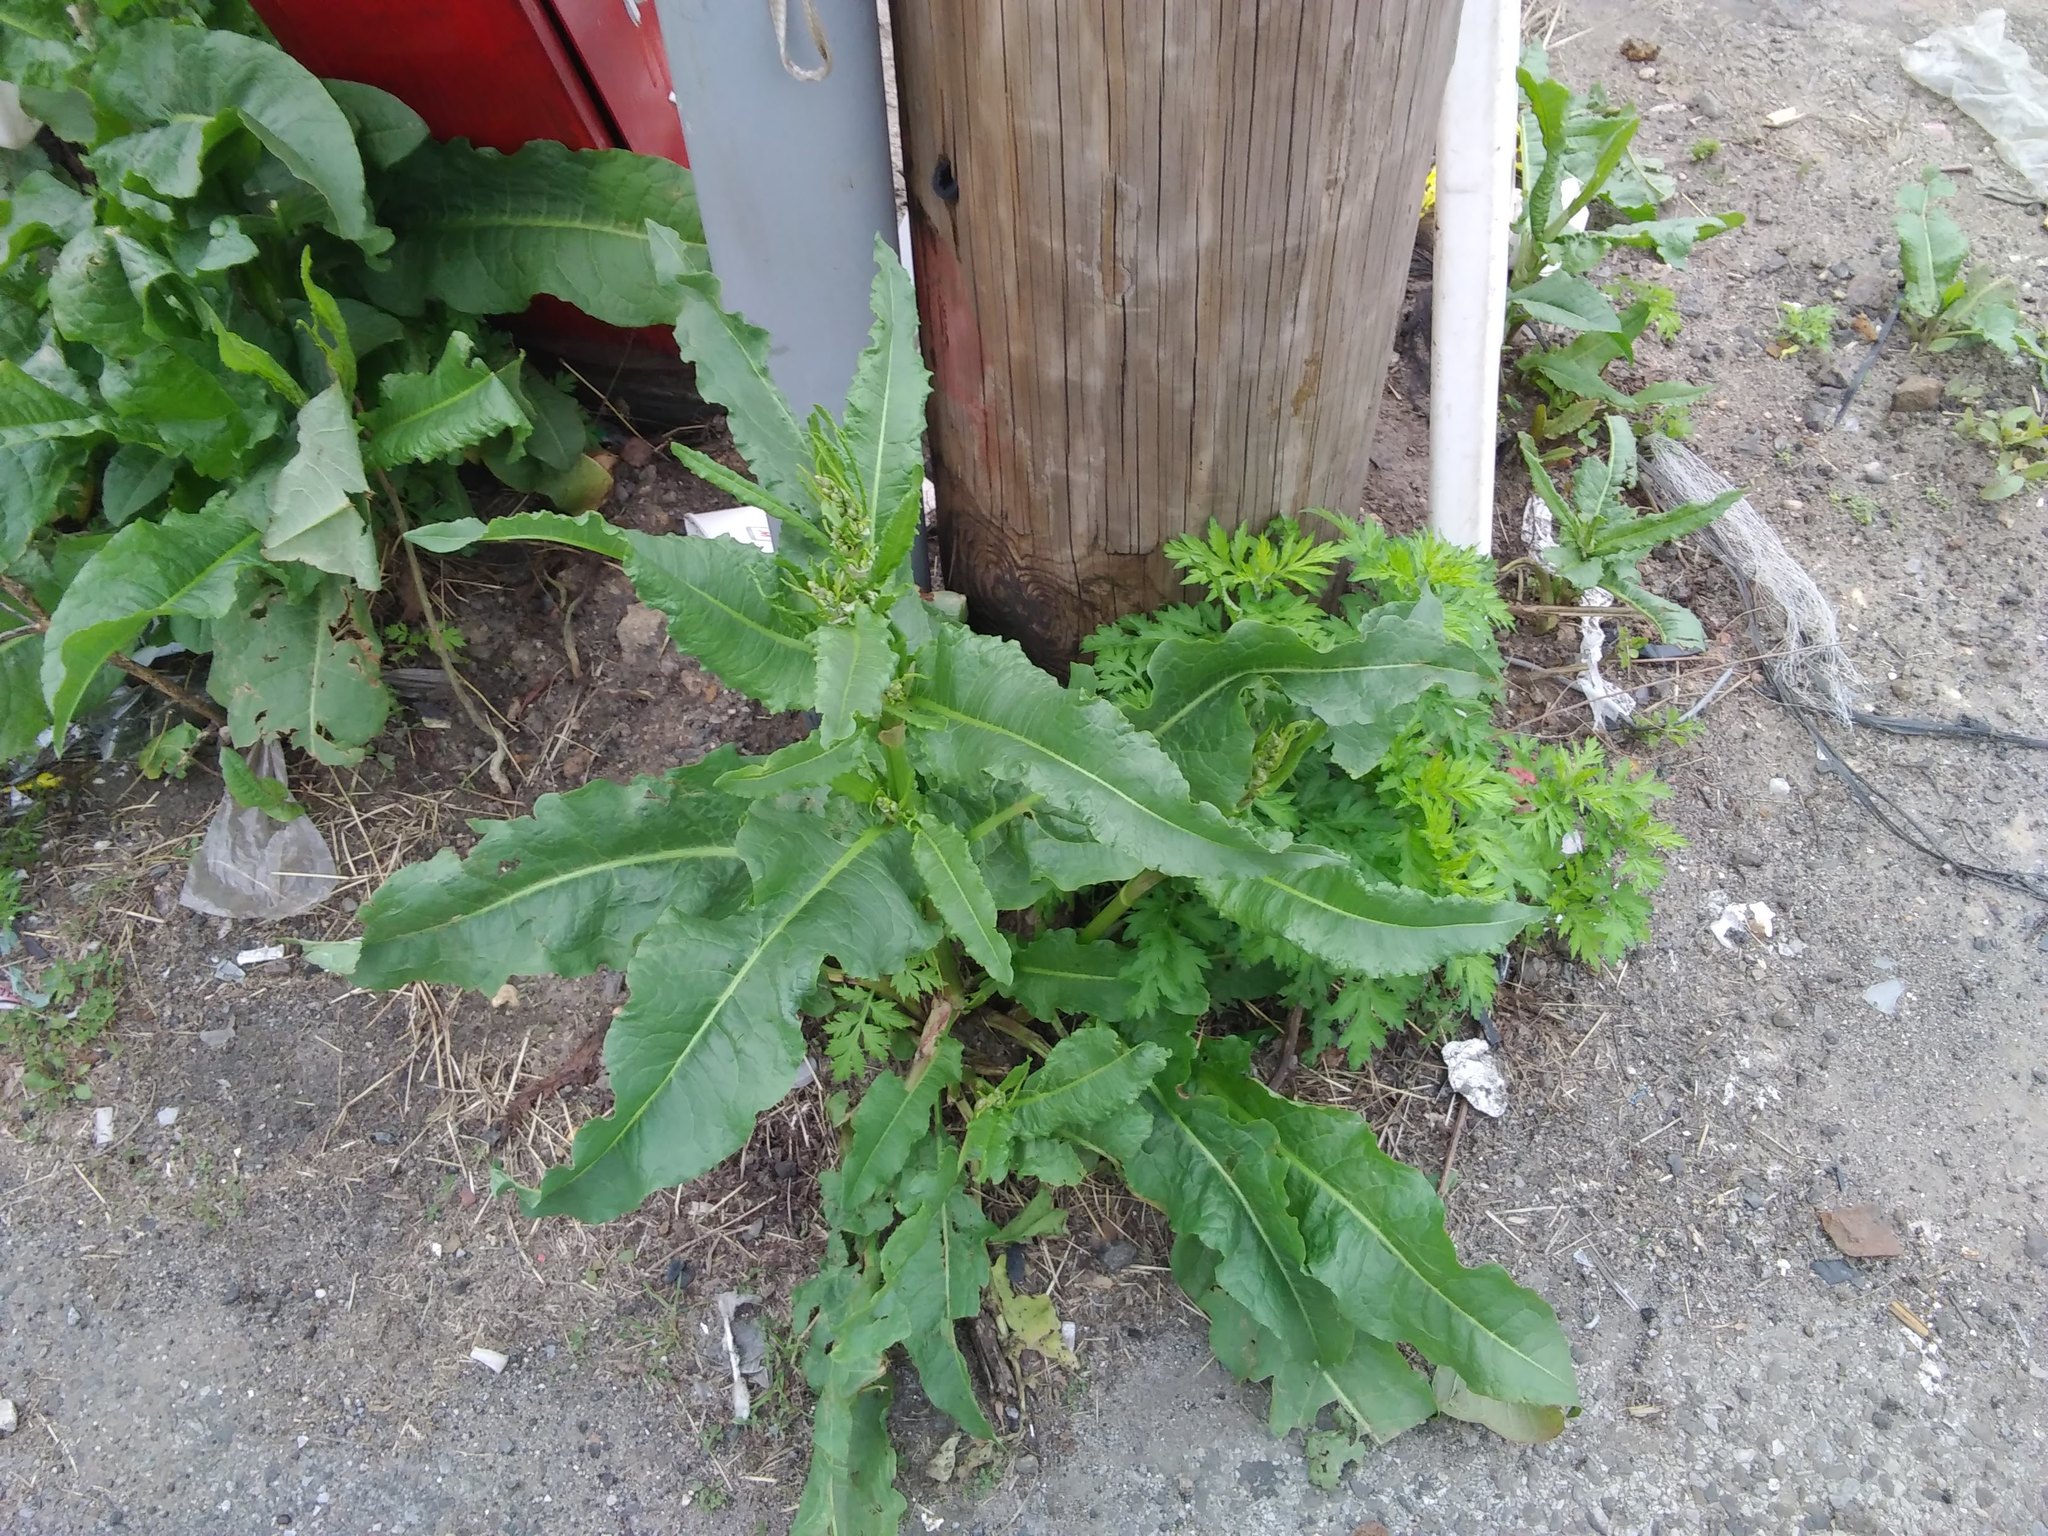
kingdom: Plantae
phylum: Tracheophyta
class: Magnoliopsida
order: Caryophyllales
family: Polygonaceae
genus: Rumex
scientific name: Rumex crispus
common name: Curled dock
